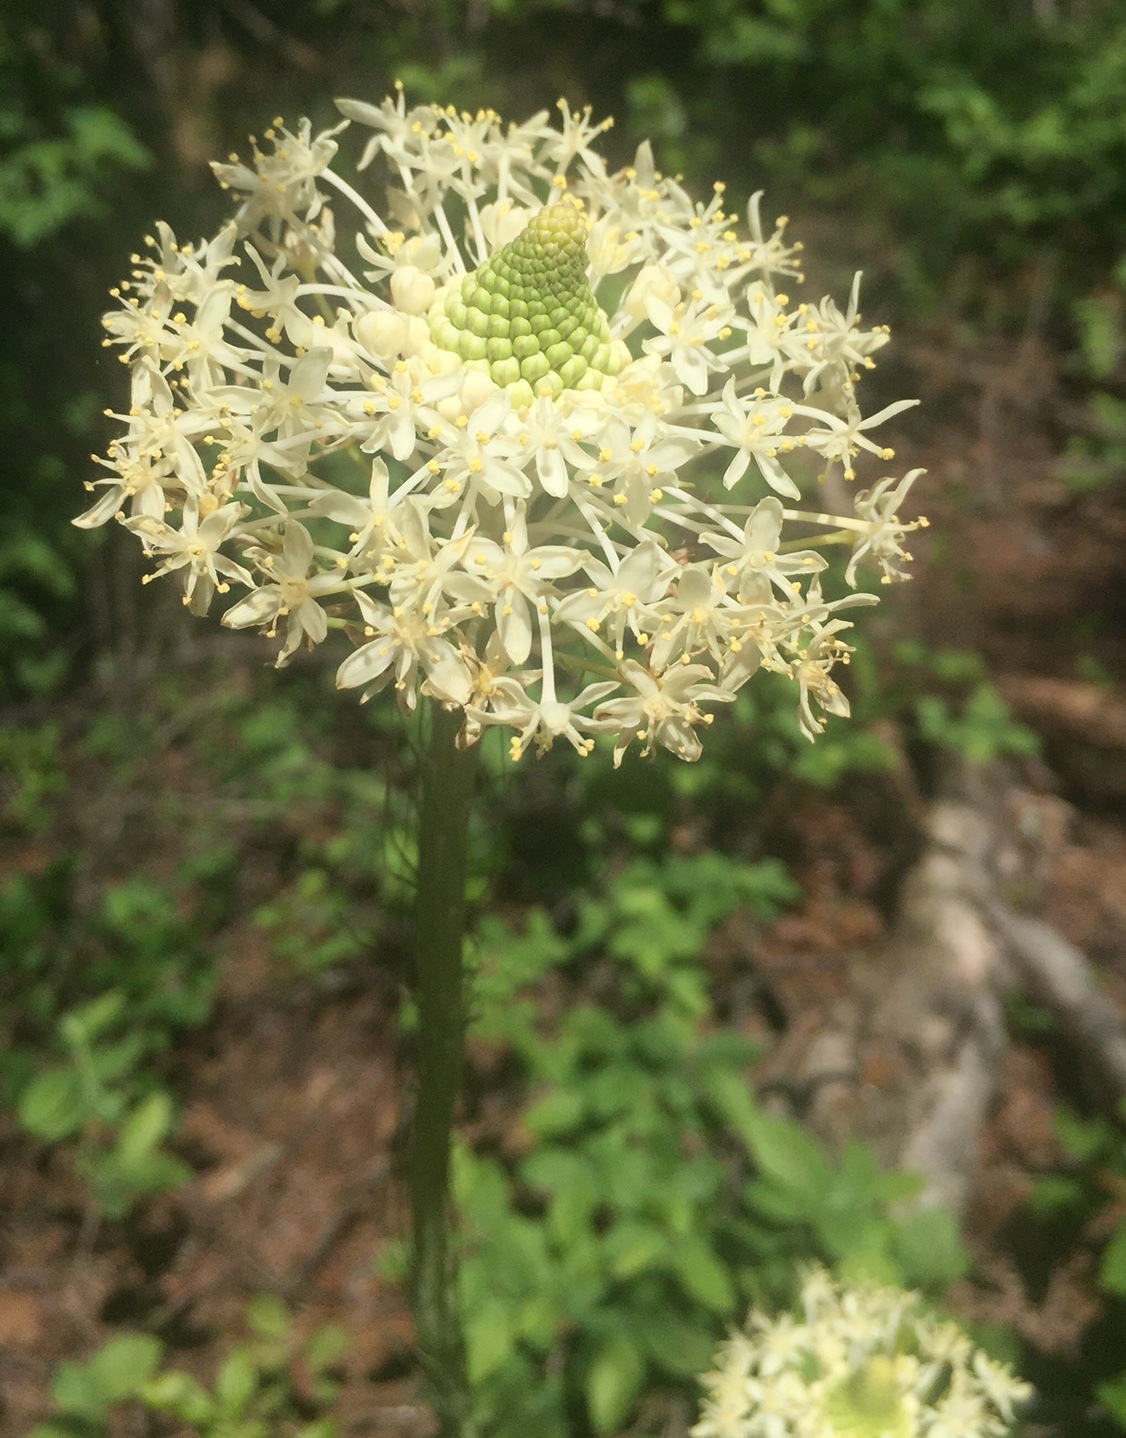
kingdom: Plantae
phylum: Tracheophyta
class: Liliopsida
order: Liliales
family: Melanthiaceae
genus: Xerophyllum
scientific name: Xerophyllum asphodeloides
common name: Mountain-asphodel
